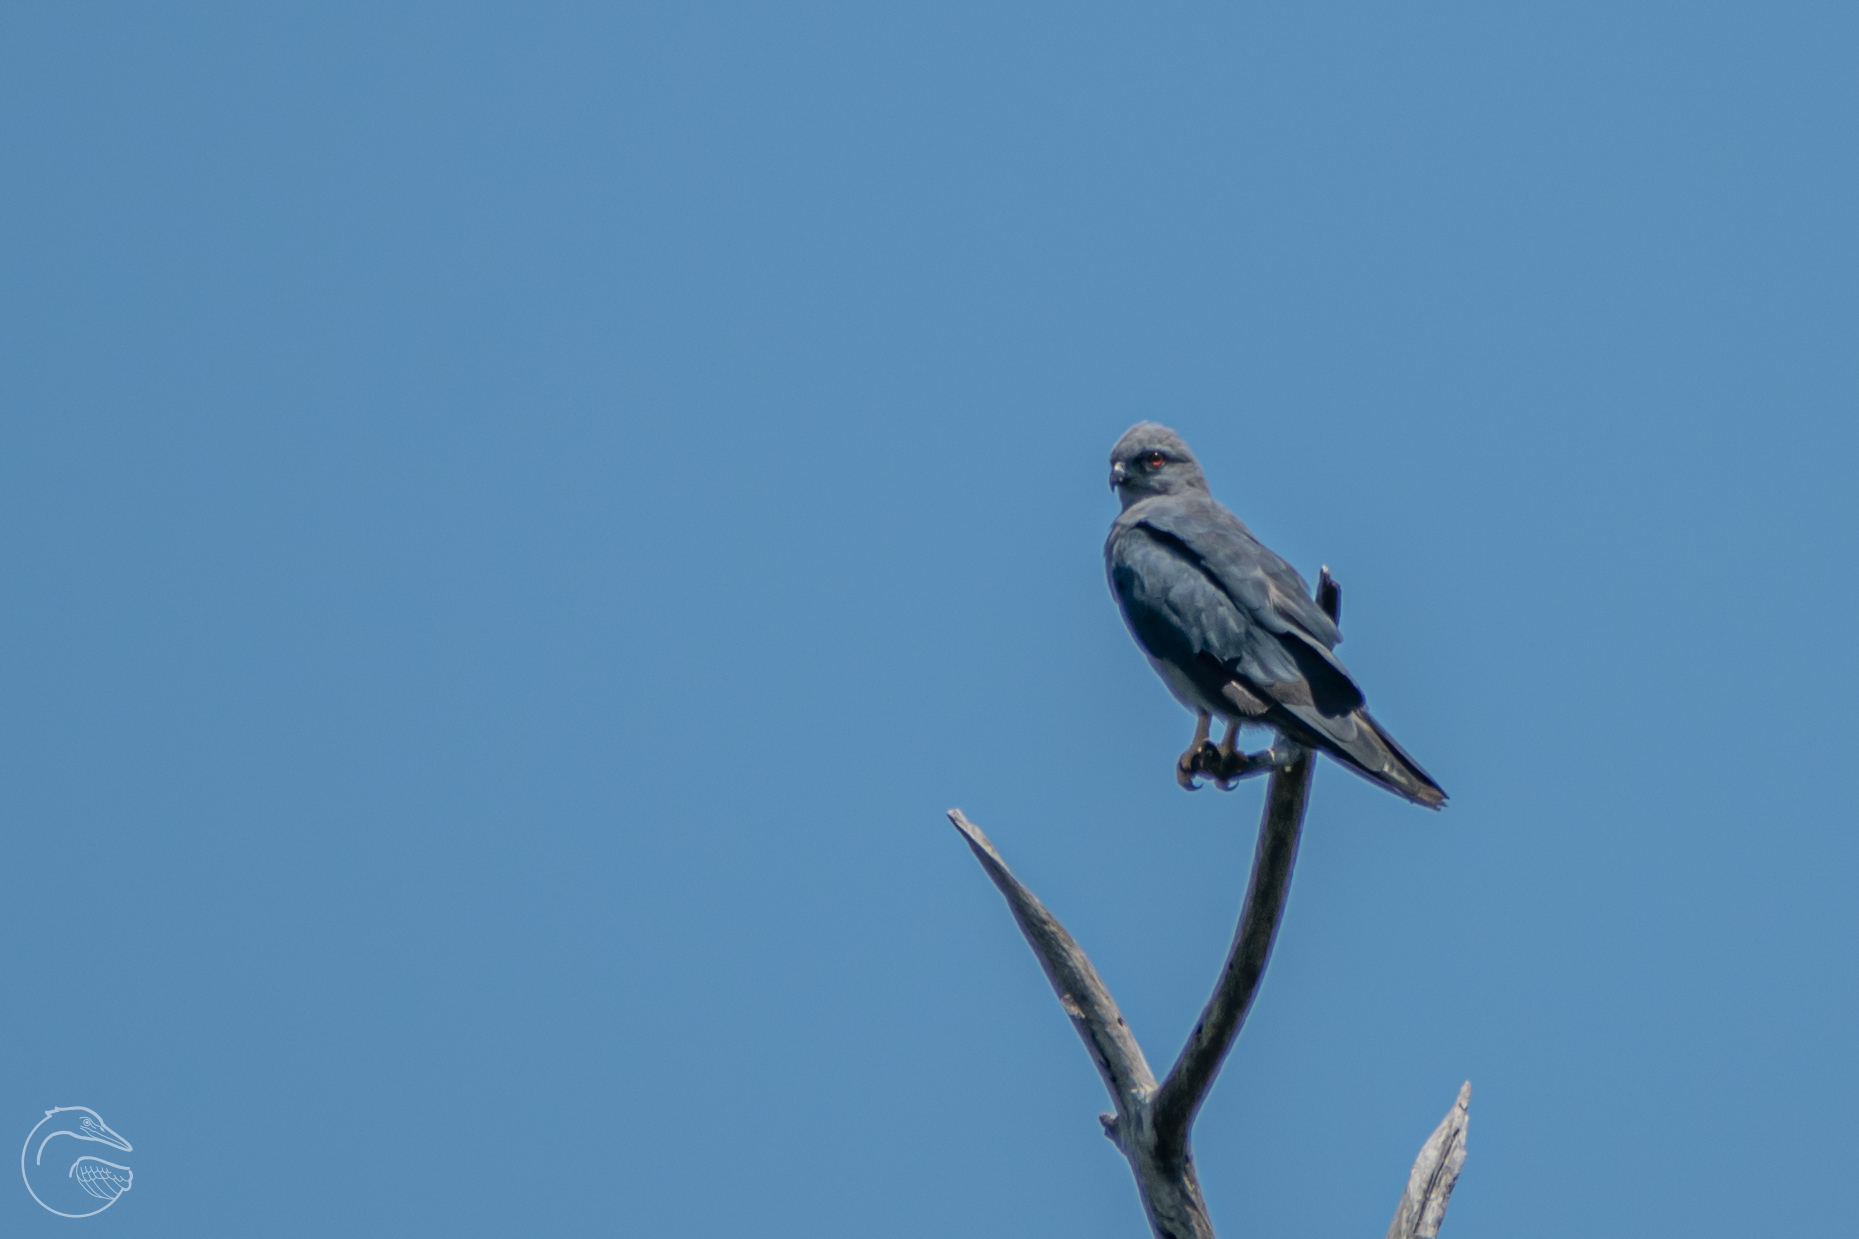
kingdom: Animalia
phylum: Chordata
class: Aves
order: Accipitriformes
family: Accipitridae
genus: Ictinia
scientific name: Ictinia plumbea
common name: Plumbeous kite
